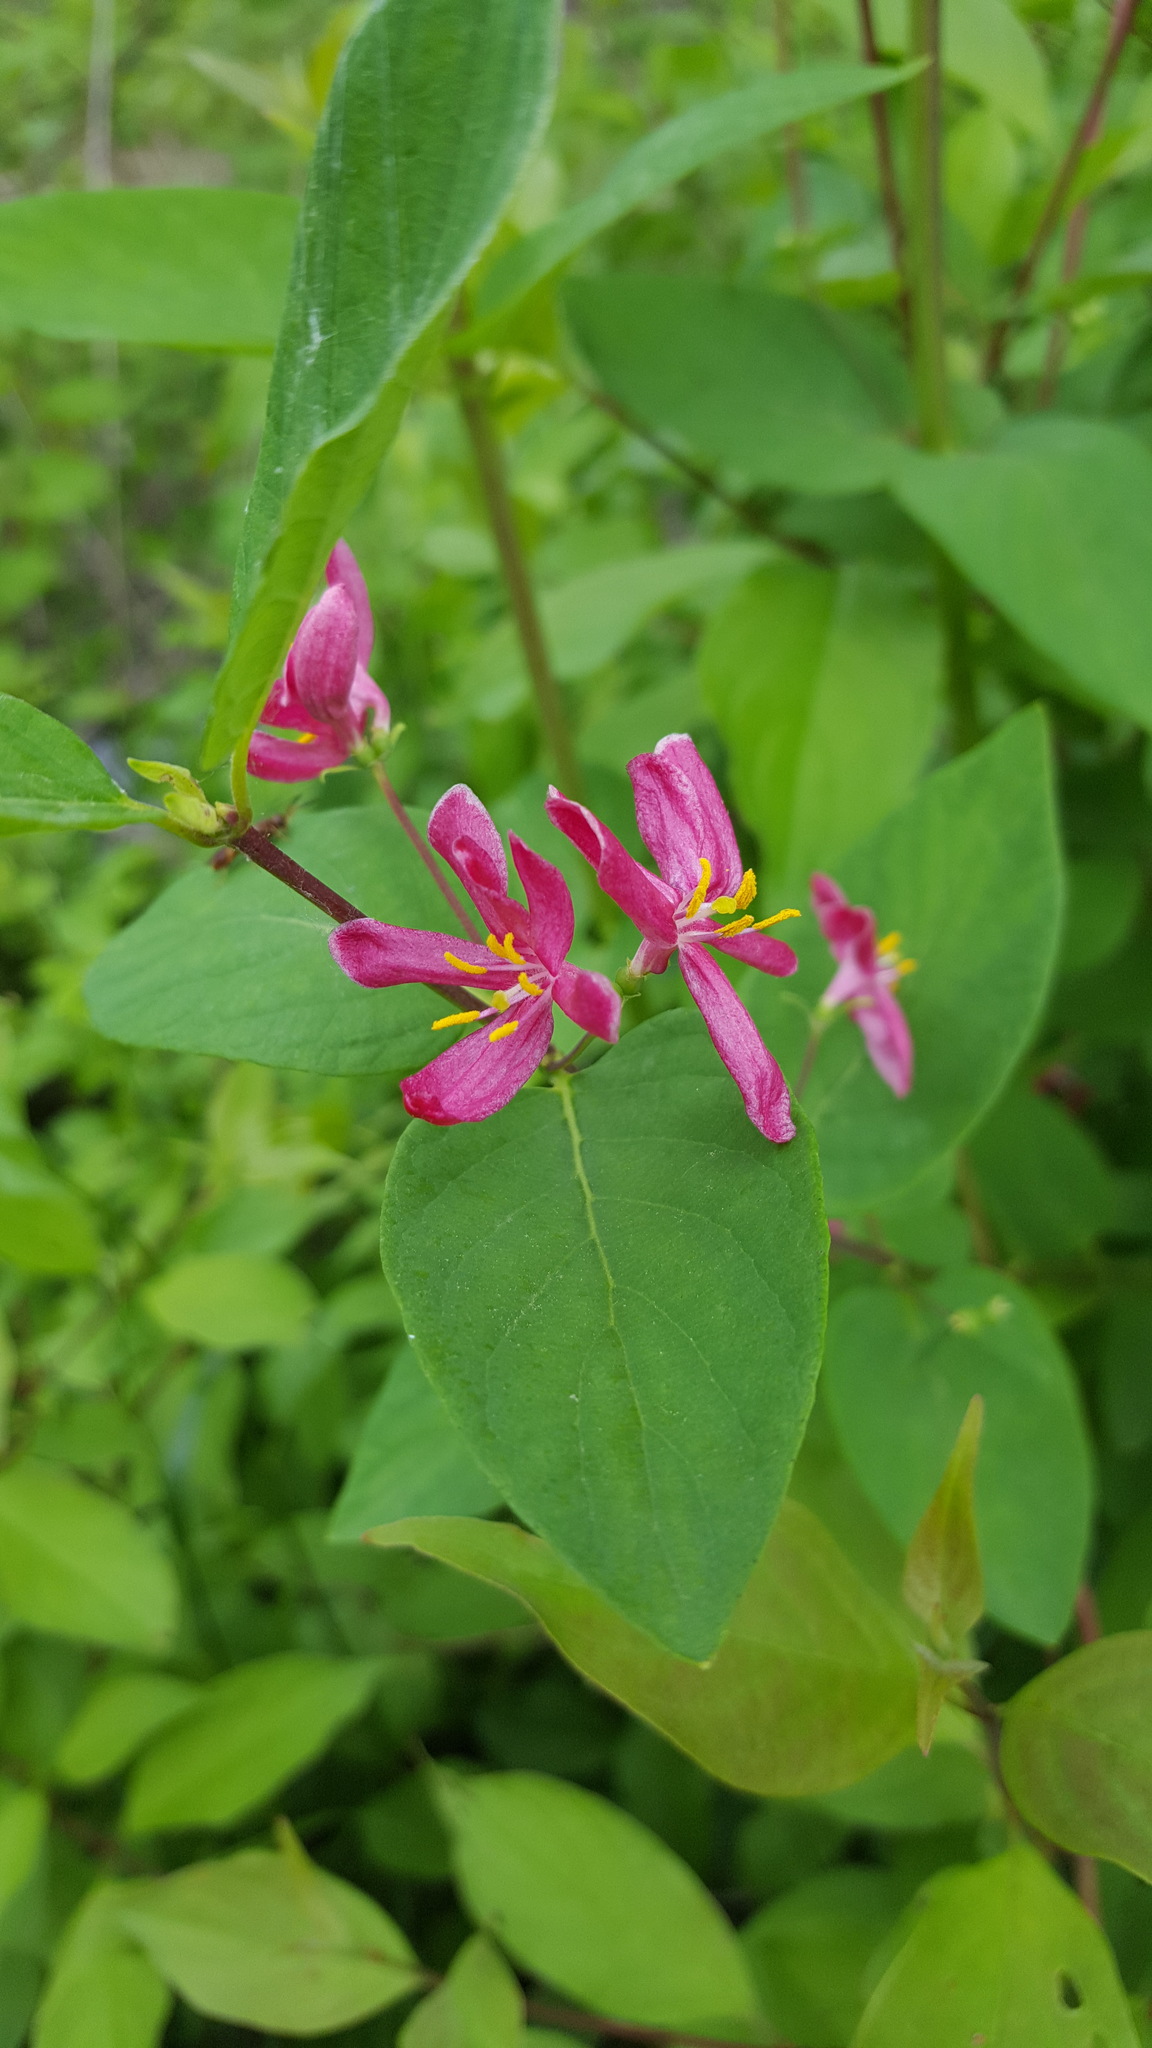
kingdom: Plantae
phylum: Tracheophyta
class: Magnoliopsida
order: Dipsacales
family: Caprifoliaceae
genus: Lonicera
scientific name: Lonicera tatarica
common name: Tatarian honeysuckle
